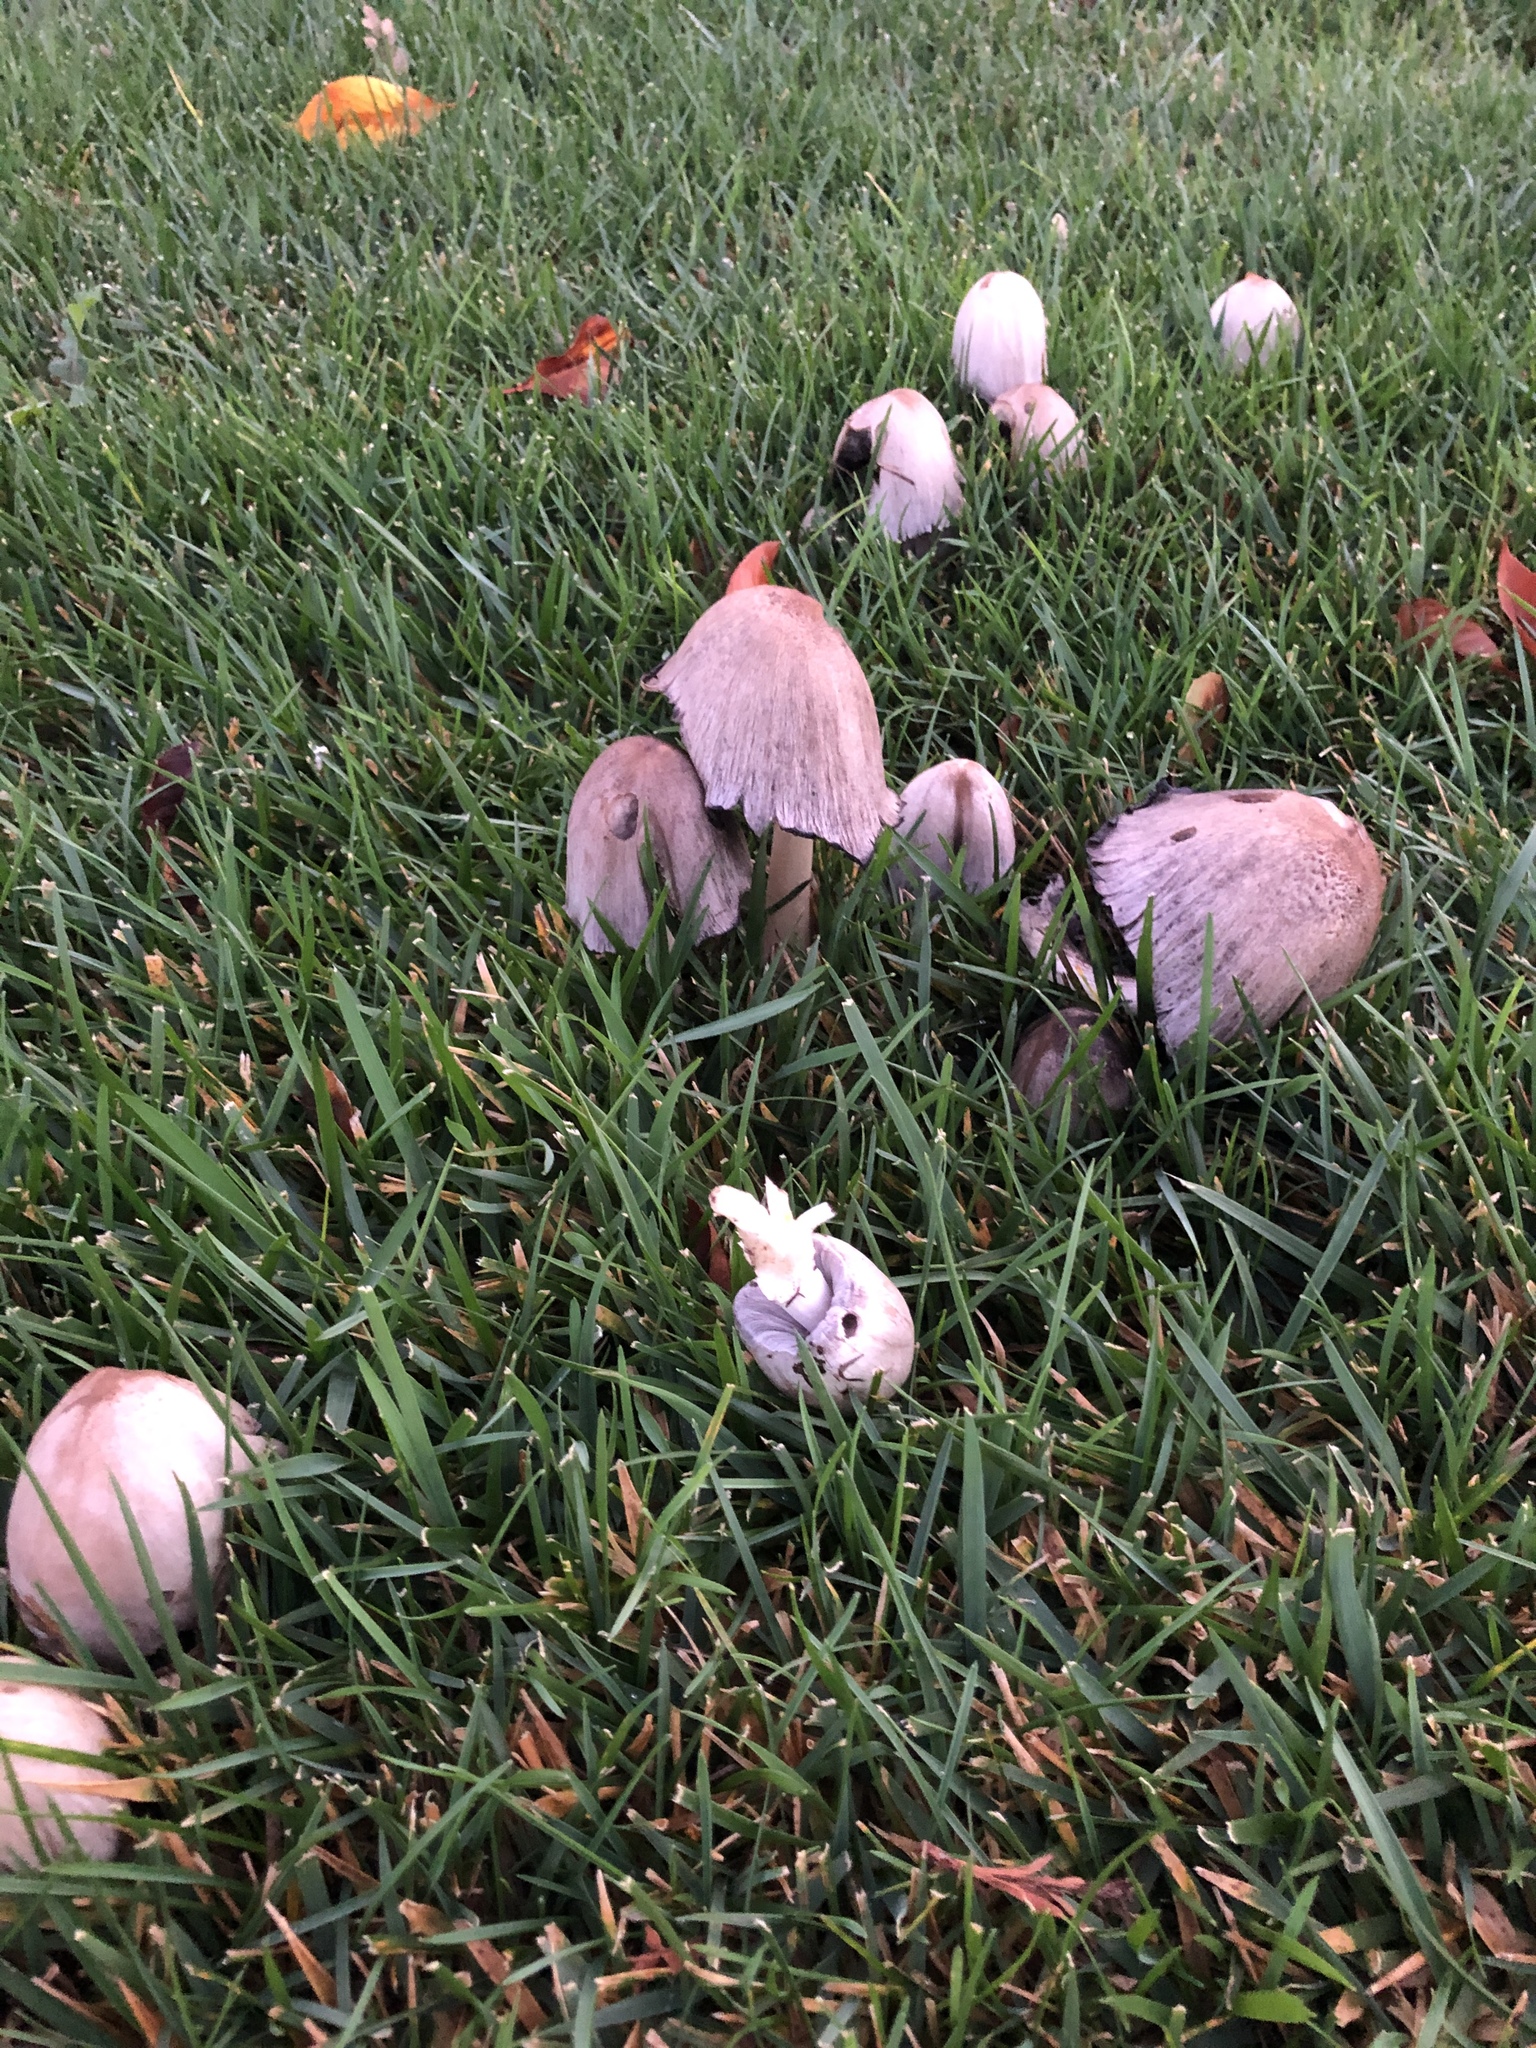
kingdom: Fungi
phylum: Basidiomycota
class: Agaricomycetes
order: Agaricales
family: Psathyrellaceae
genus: Coprinopsis
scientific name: Coprinopsis atramentaria
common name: Common ink-cap
